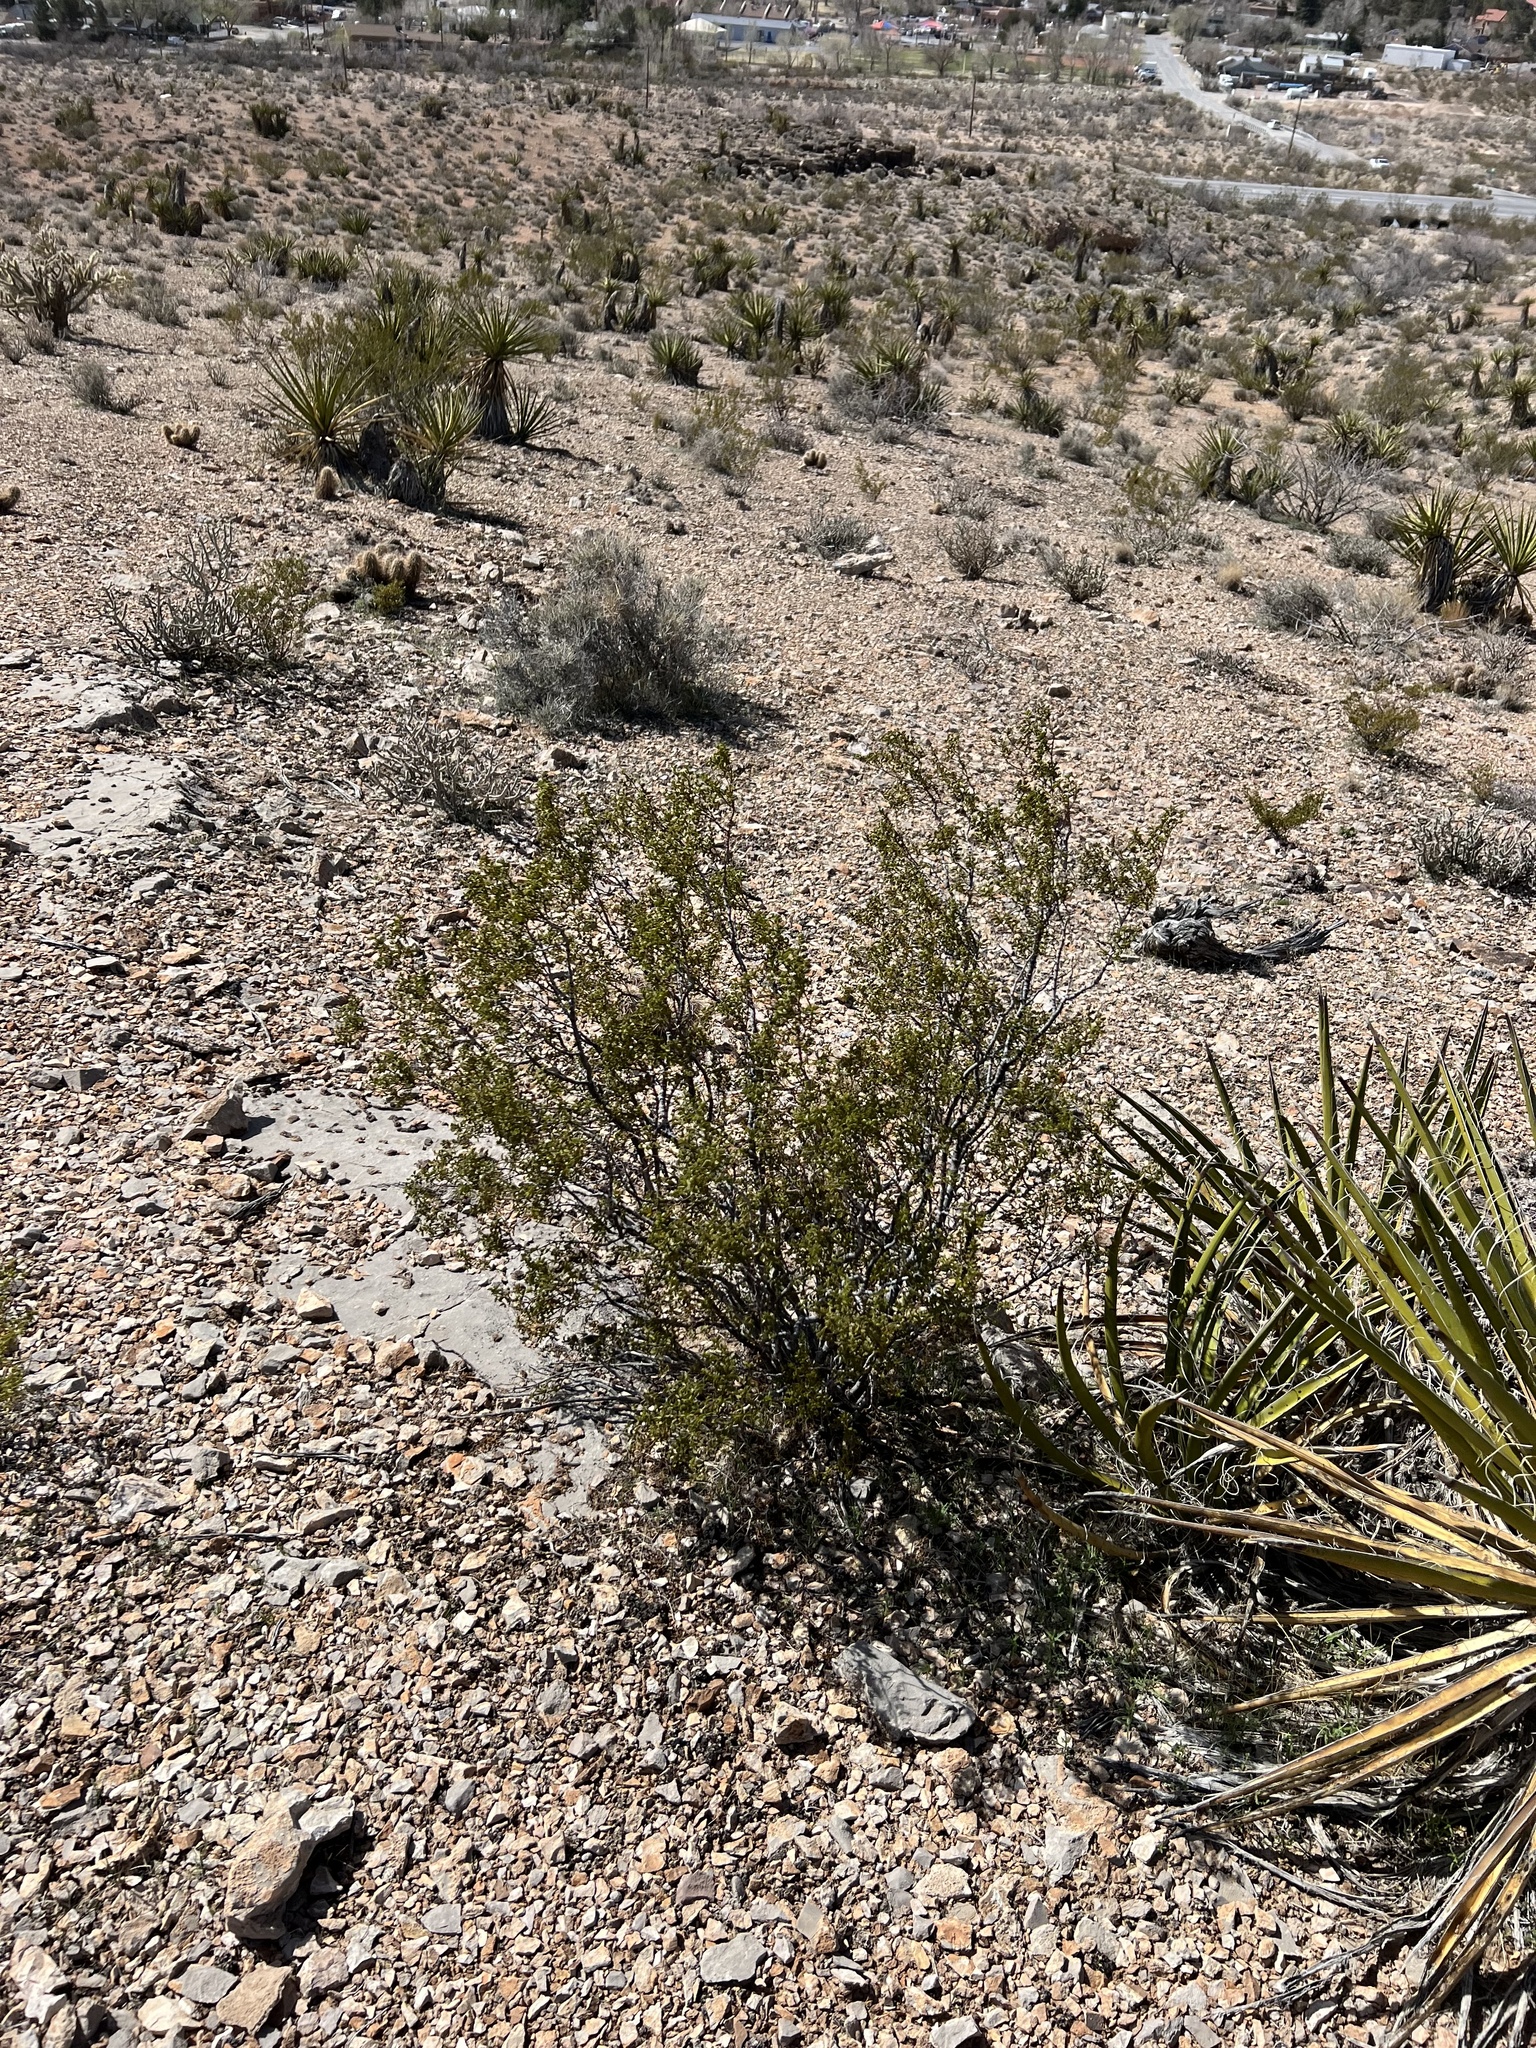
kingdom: Plantae
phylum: Tracheophyta
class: Magnoliopsida
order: Zygophyllales
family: Zygophyllaceae
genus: Larrea
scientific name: Larrea tridentata
